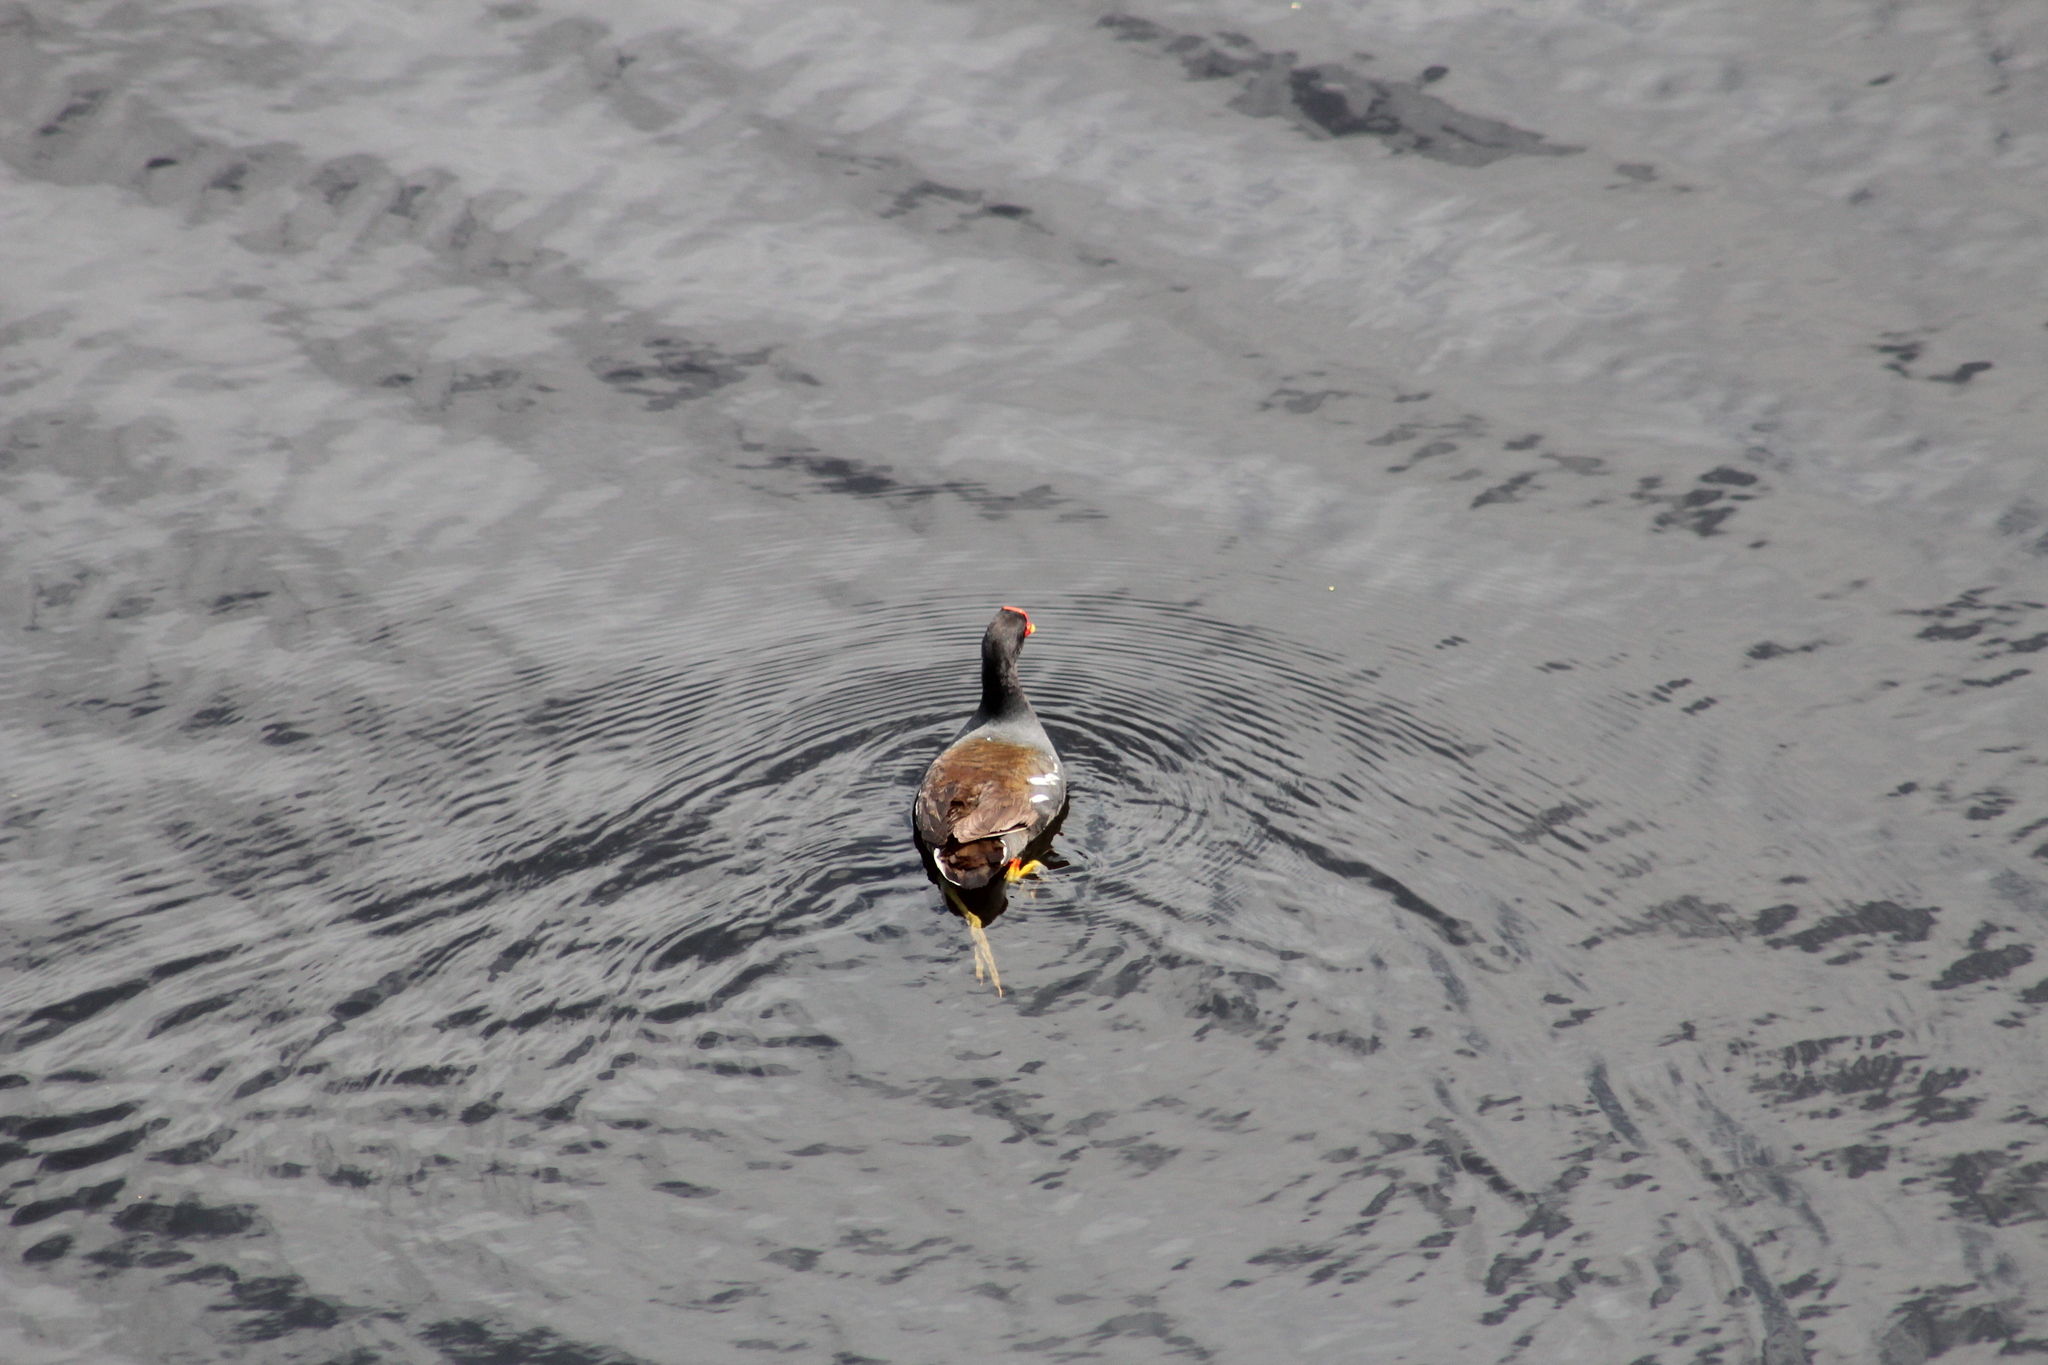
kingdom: Animalia
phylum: Chordata
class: Aves
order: Gruiformes
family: Rallidae
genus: Gallinula
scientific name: Gallinula chloropus
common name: Common moorhen
